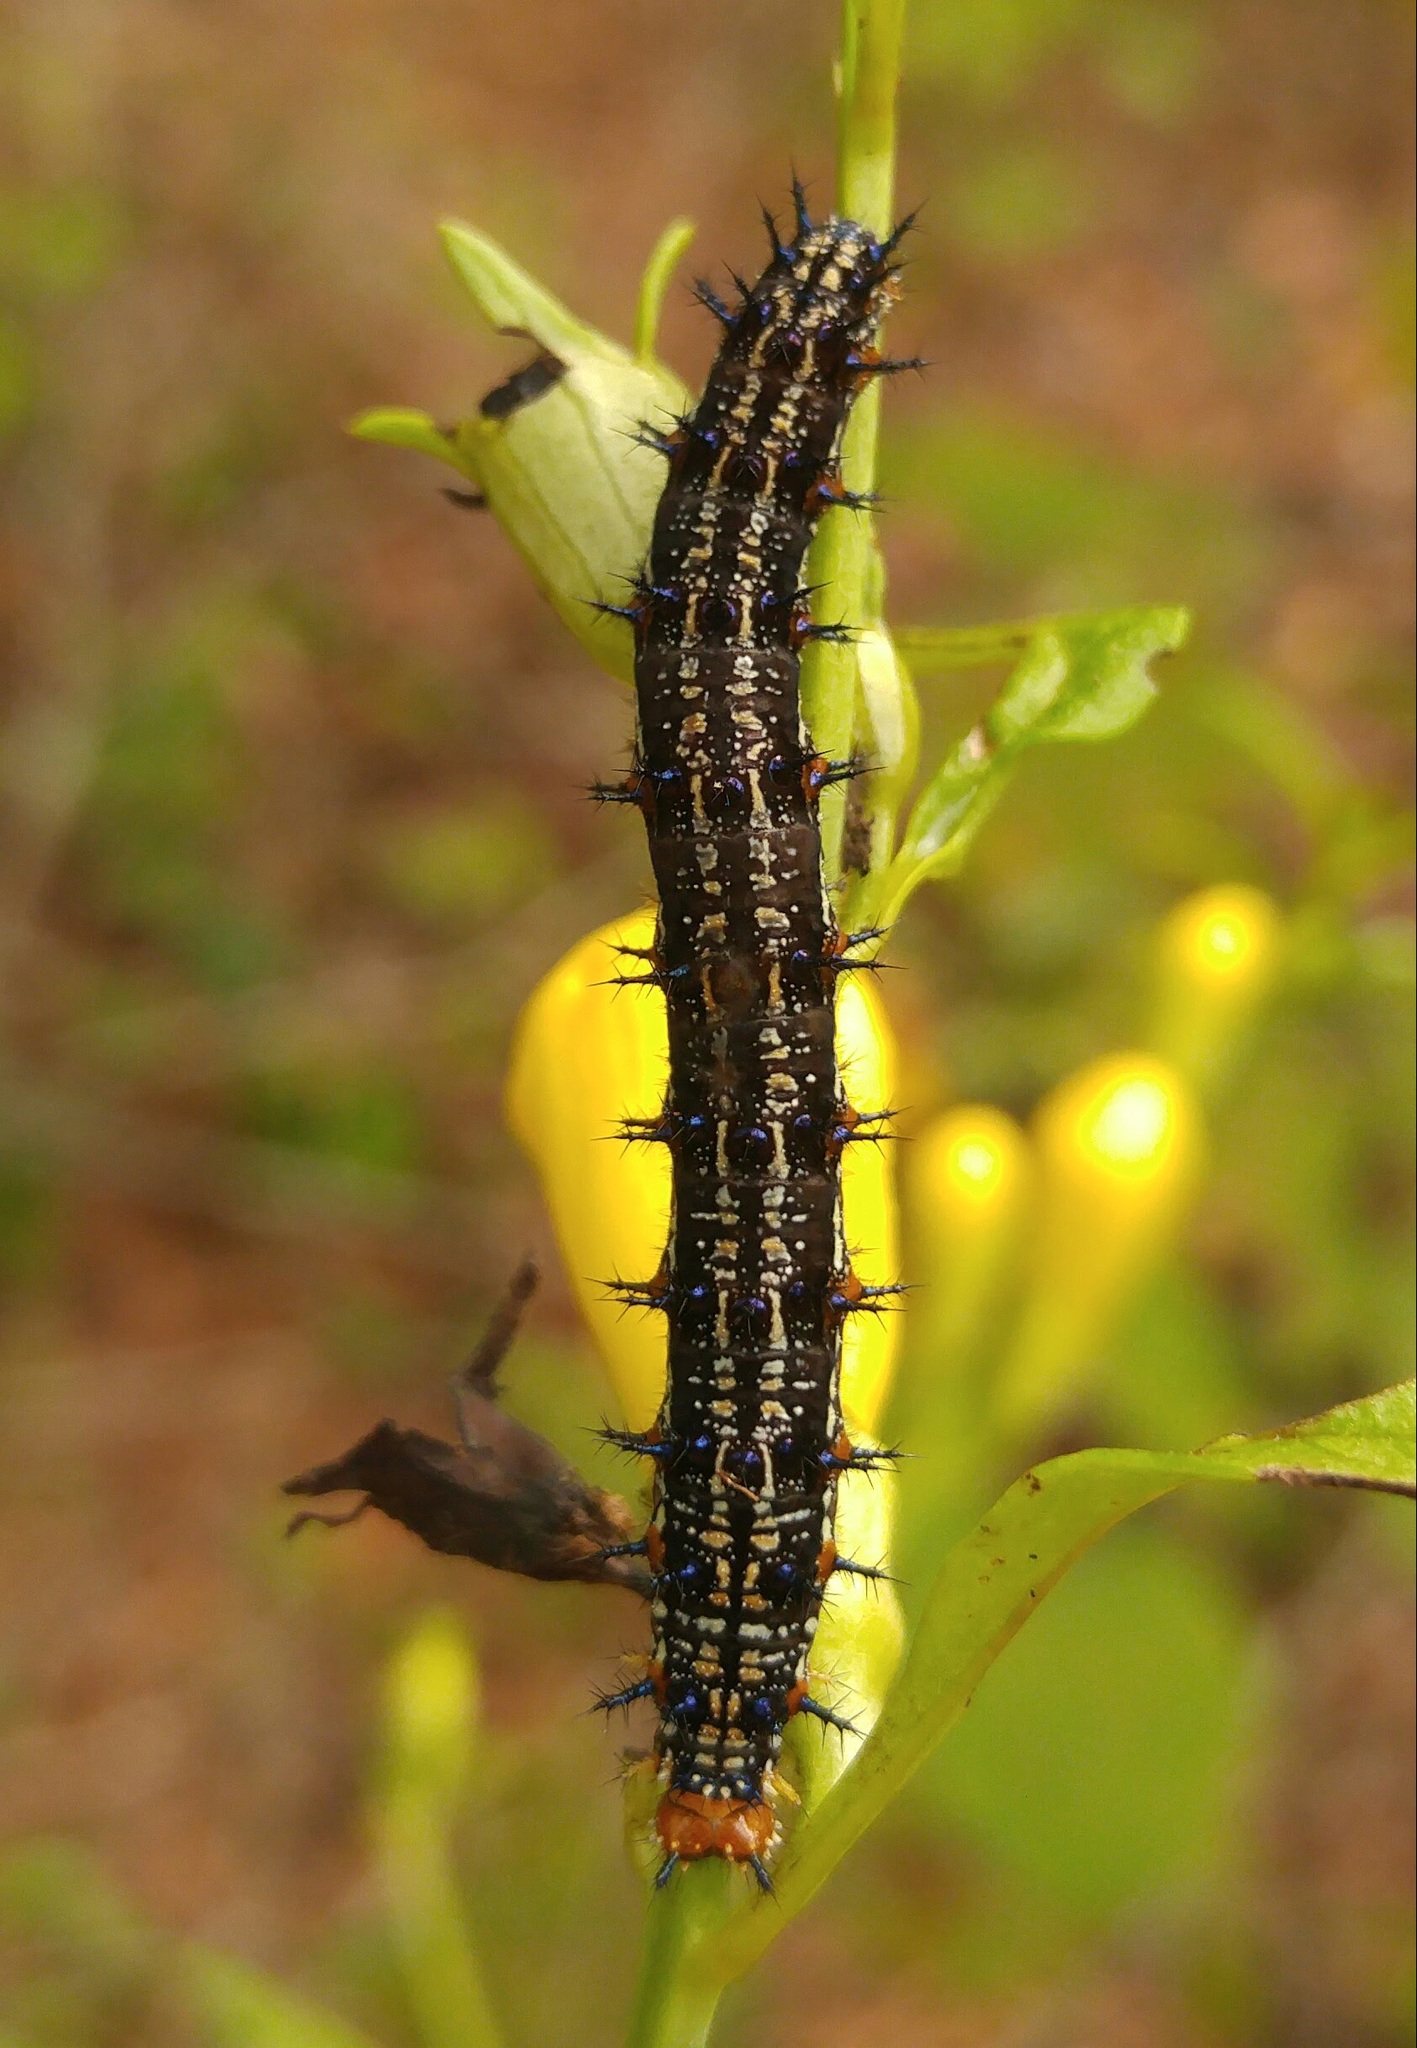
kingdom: Animalia
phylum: Arthropoda
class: Insecta
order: Lepidoptera
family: Nymphalidae
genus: Junonia
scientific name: Junonia coenia
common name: Common buckeye
